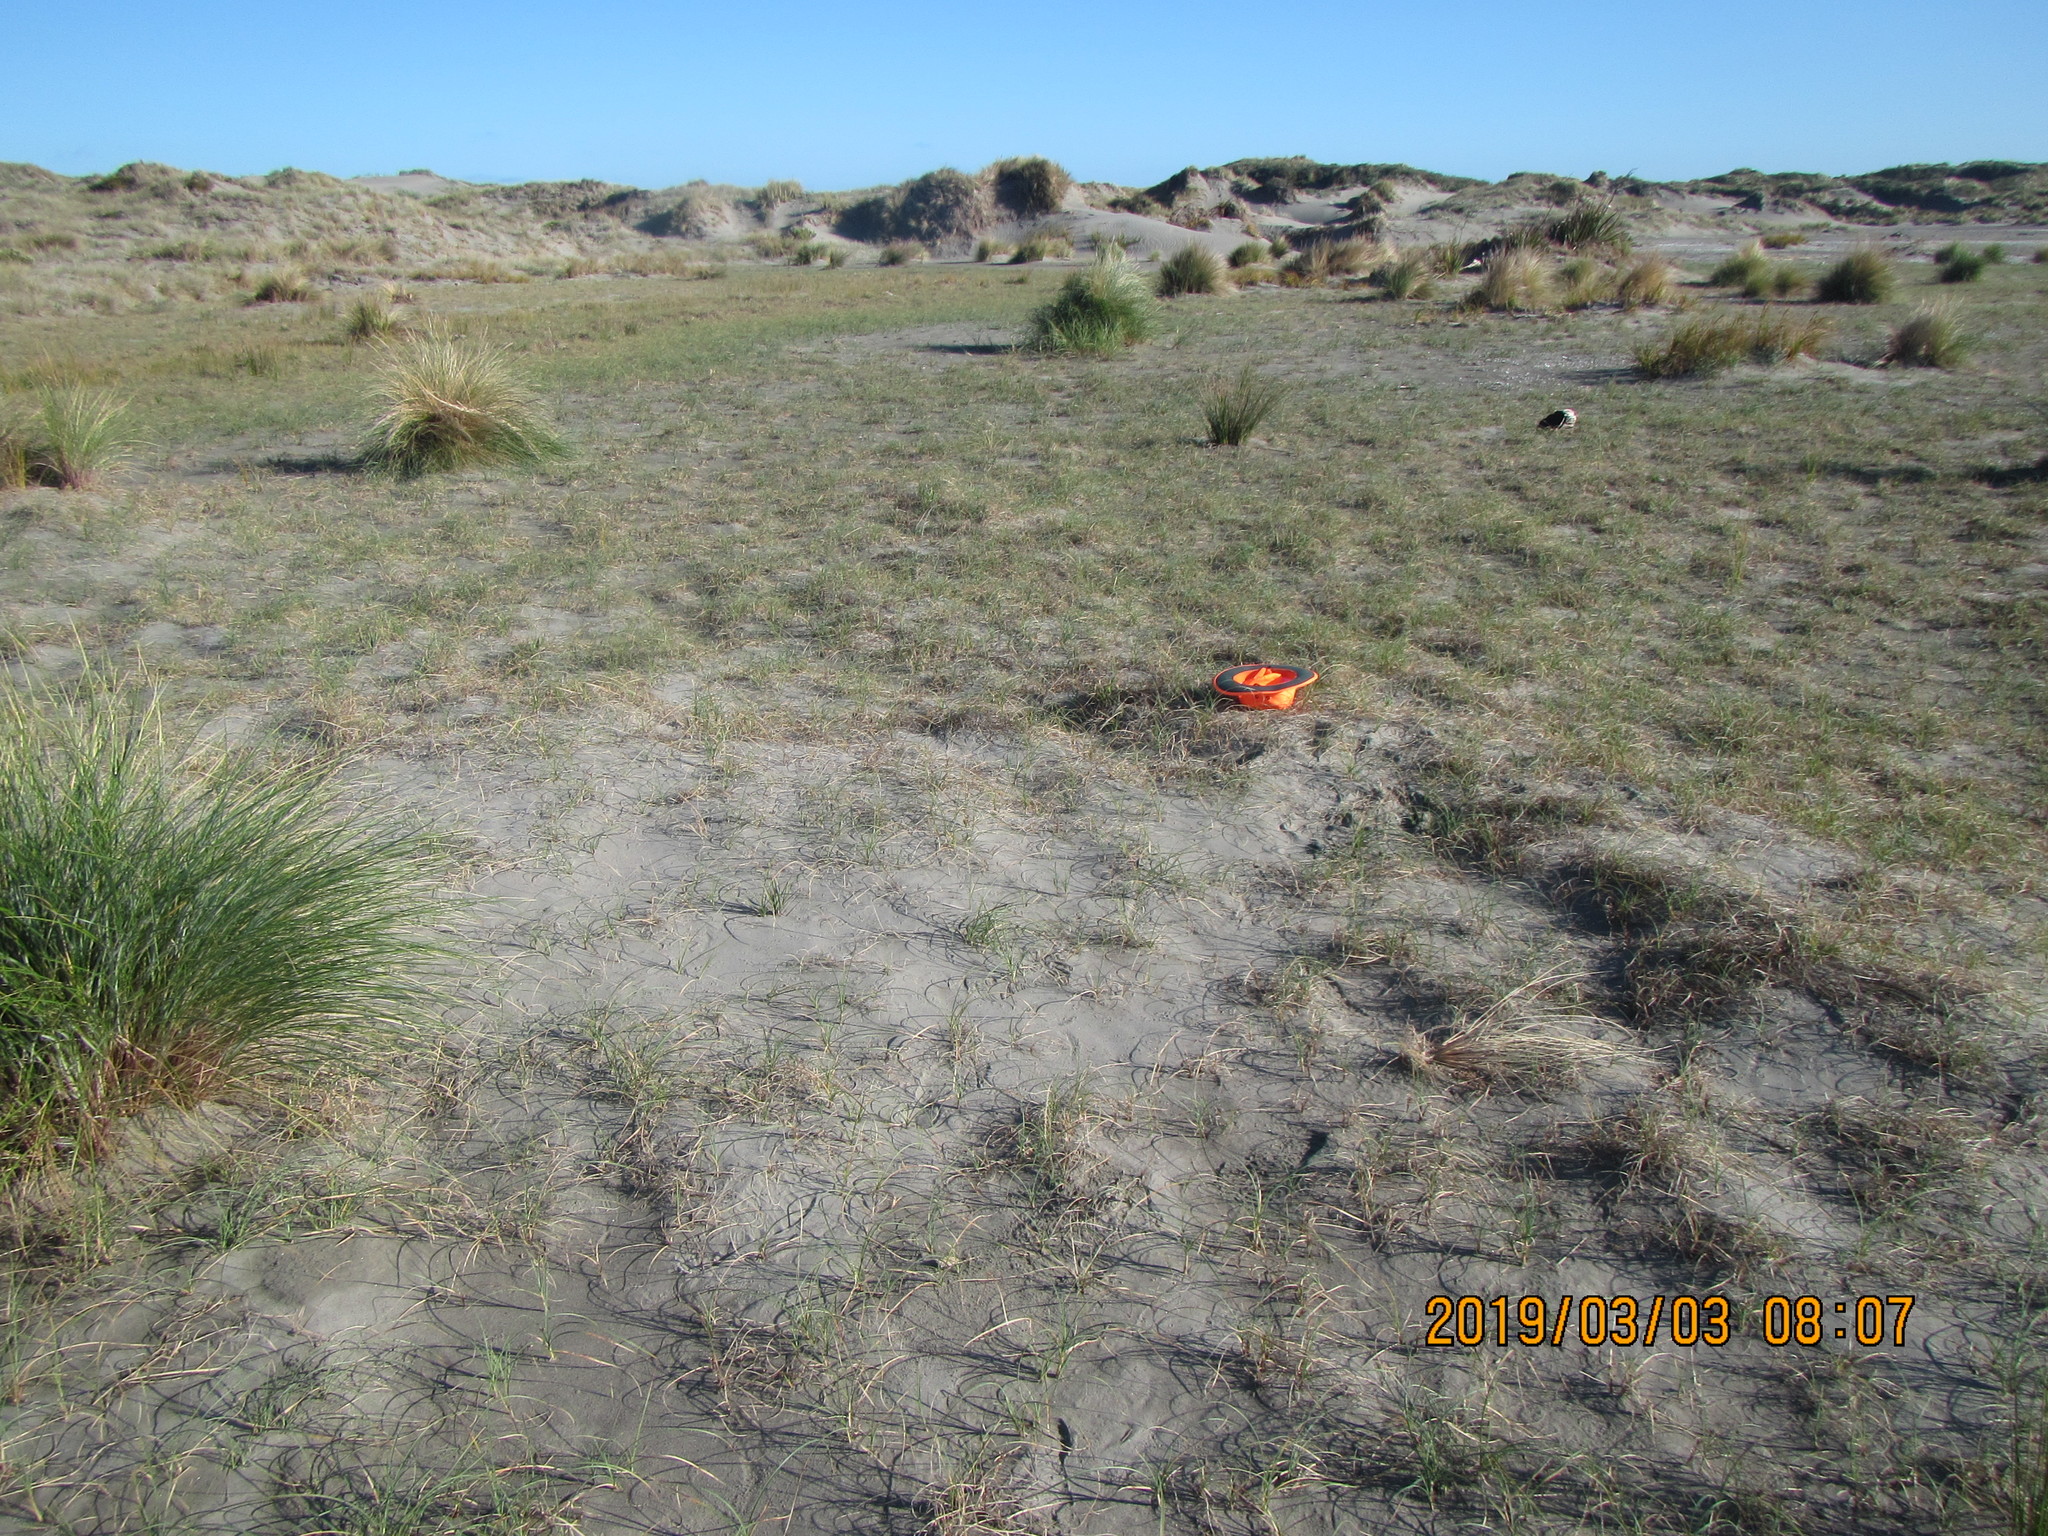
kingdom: Plantae
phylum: Tracheophyta
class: Magnoliopsida
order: Malvales
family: Thymelaeaceae
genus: Pimelea
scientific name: Pimelea villosa
